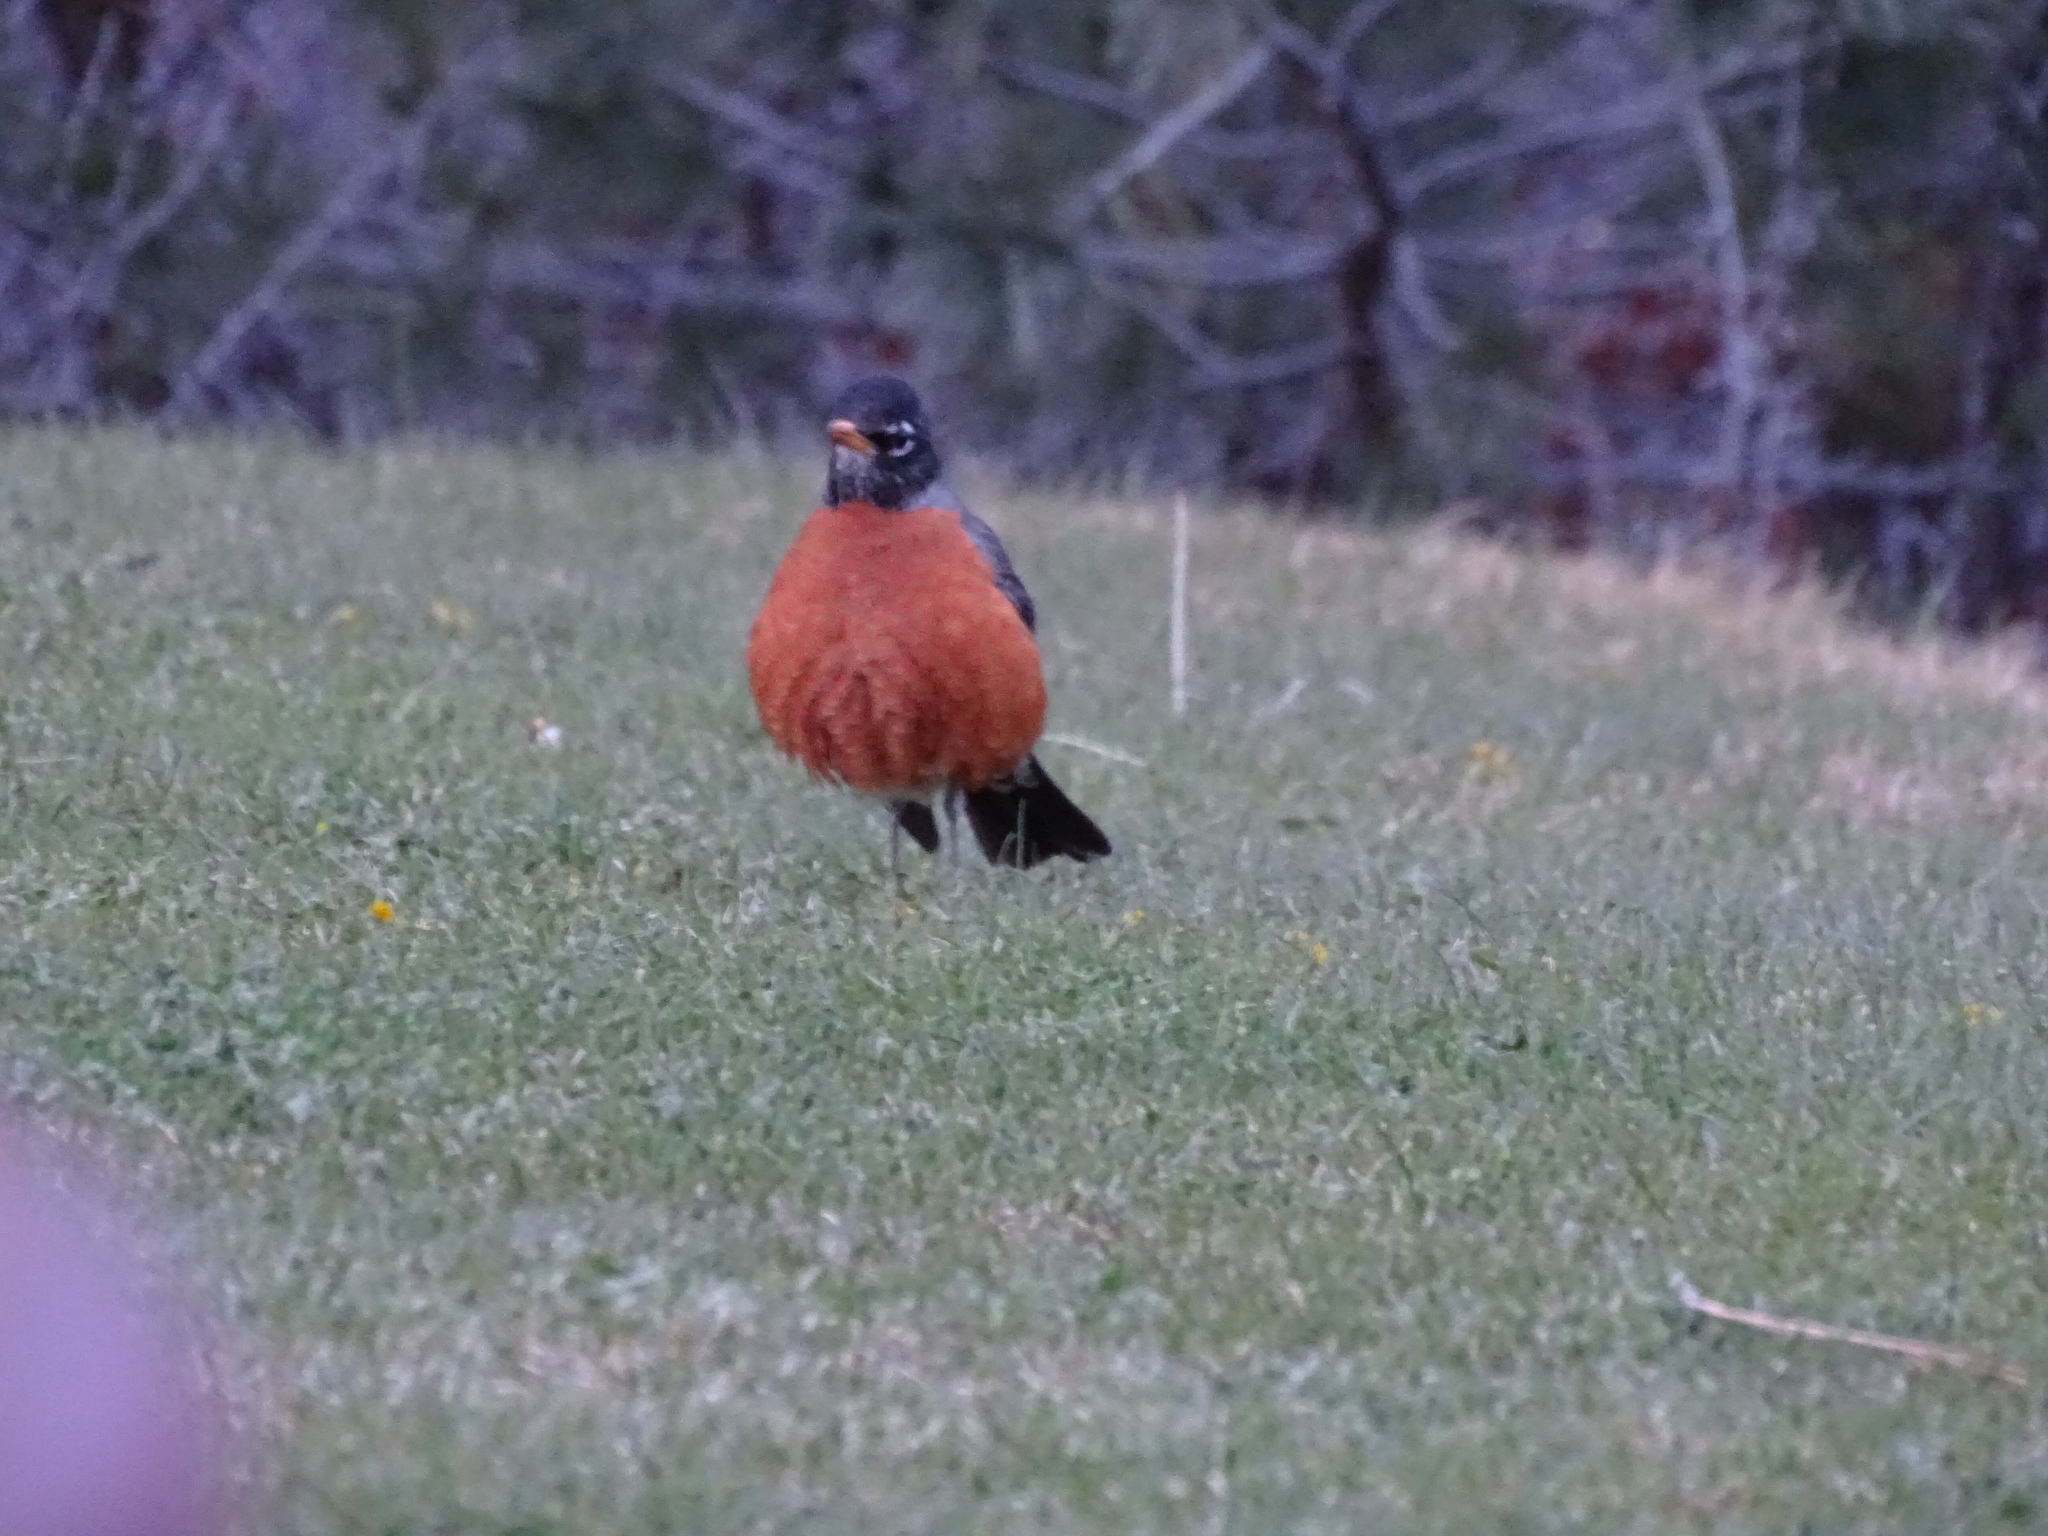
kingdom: Animalia
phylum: Chordata
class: Aves
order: Passeriformes
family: Turdidae
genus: Turdus
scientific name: Turdus migratorius
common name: American robin
